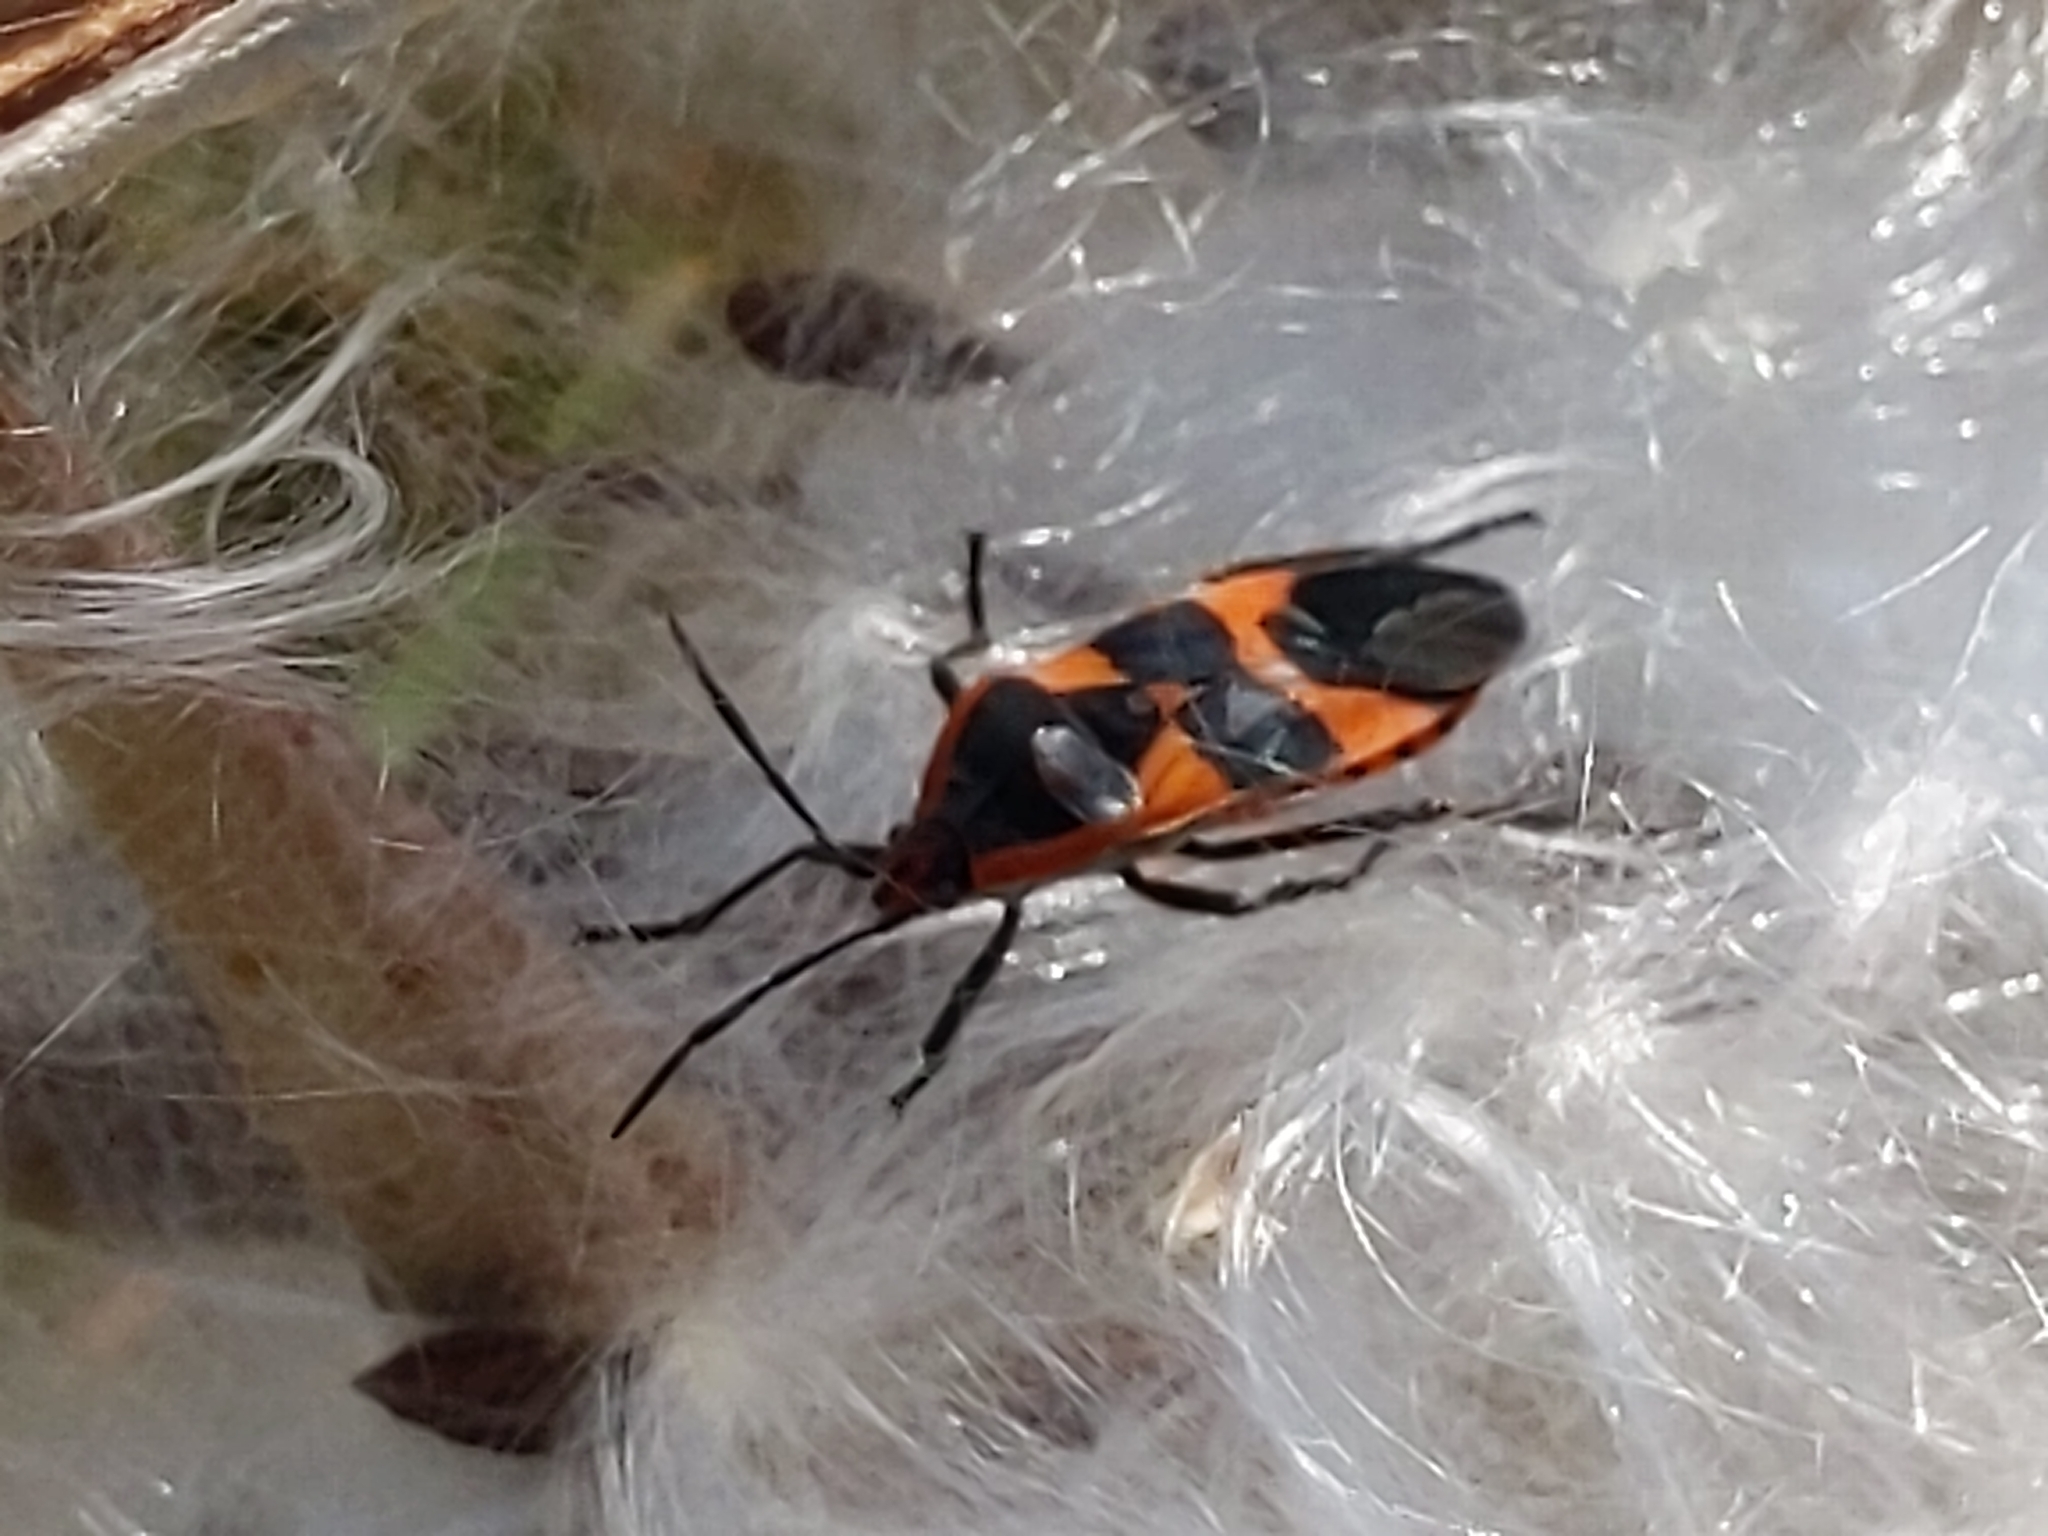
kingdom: Animalia
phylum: Arthropoda
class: Insecta
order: Hemiptera
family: Lygaeidae
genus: Oncopeltus
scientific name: Oncopeltus fasciatus
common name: Large milkweed bug
